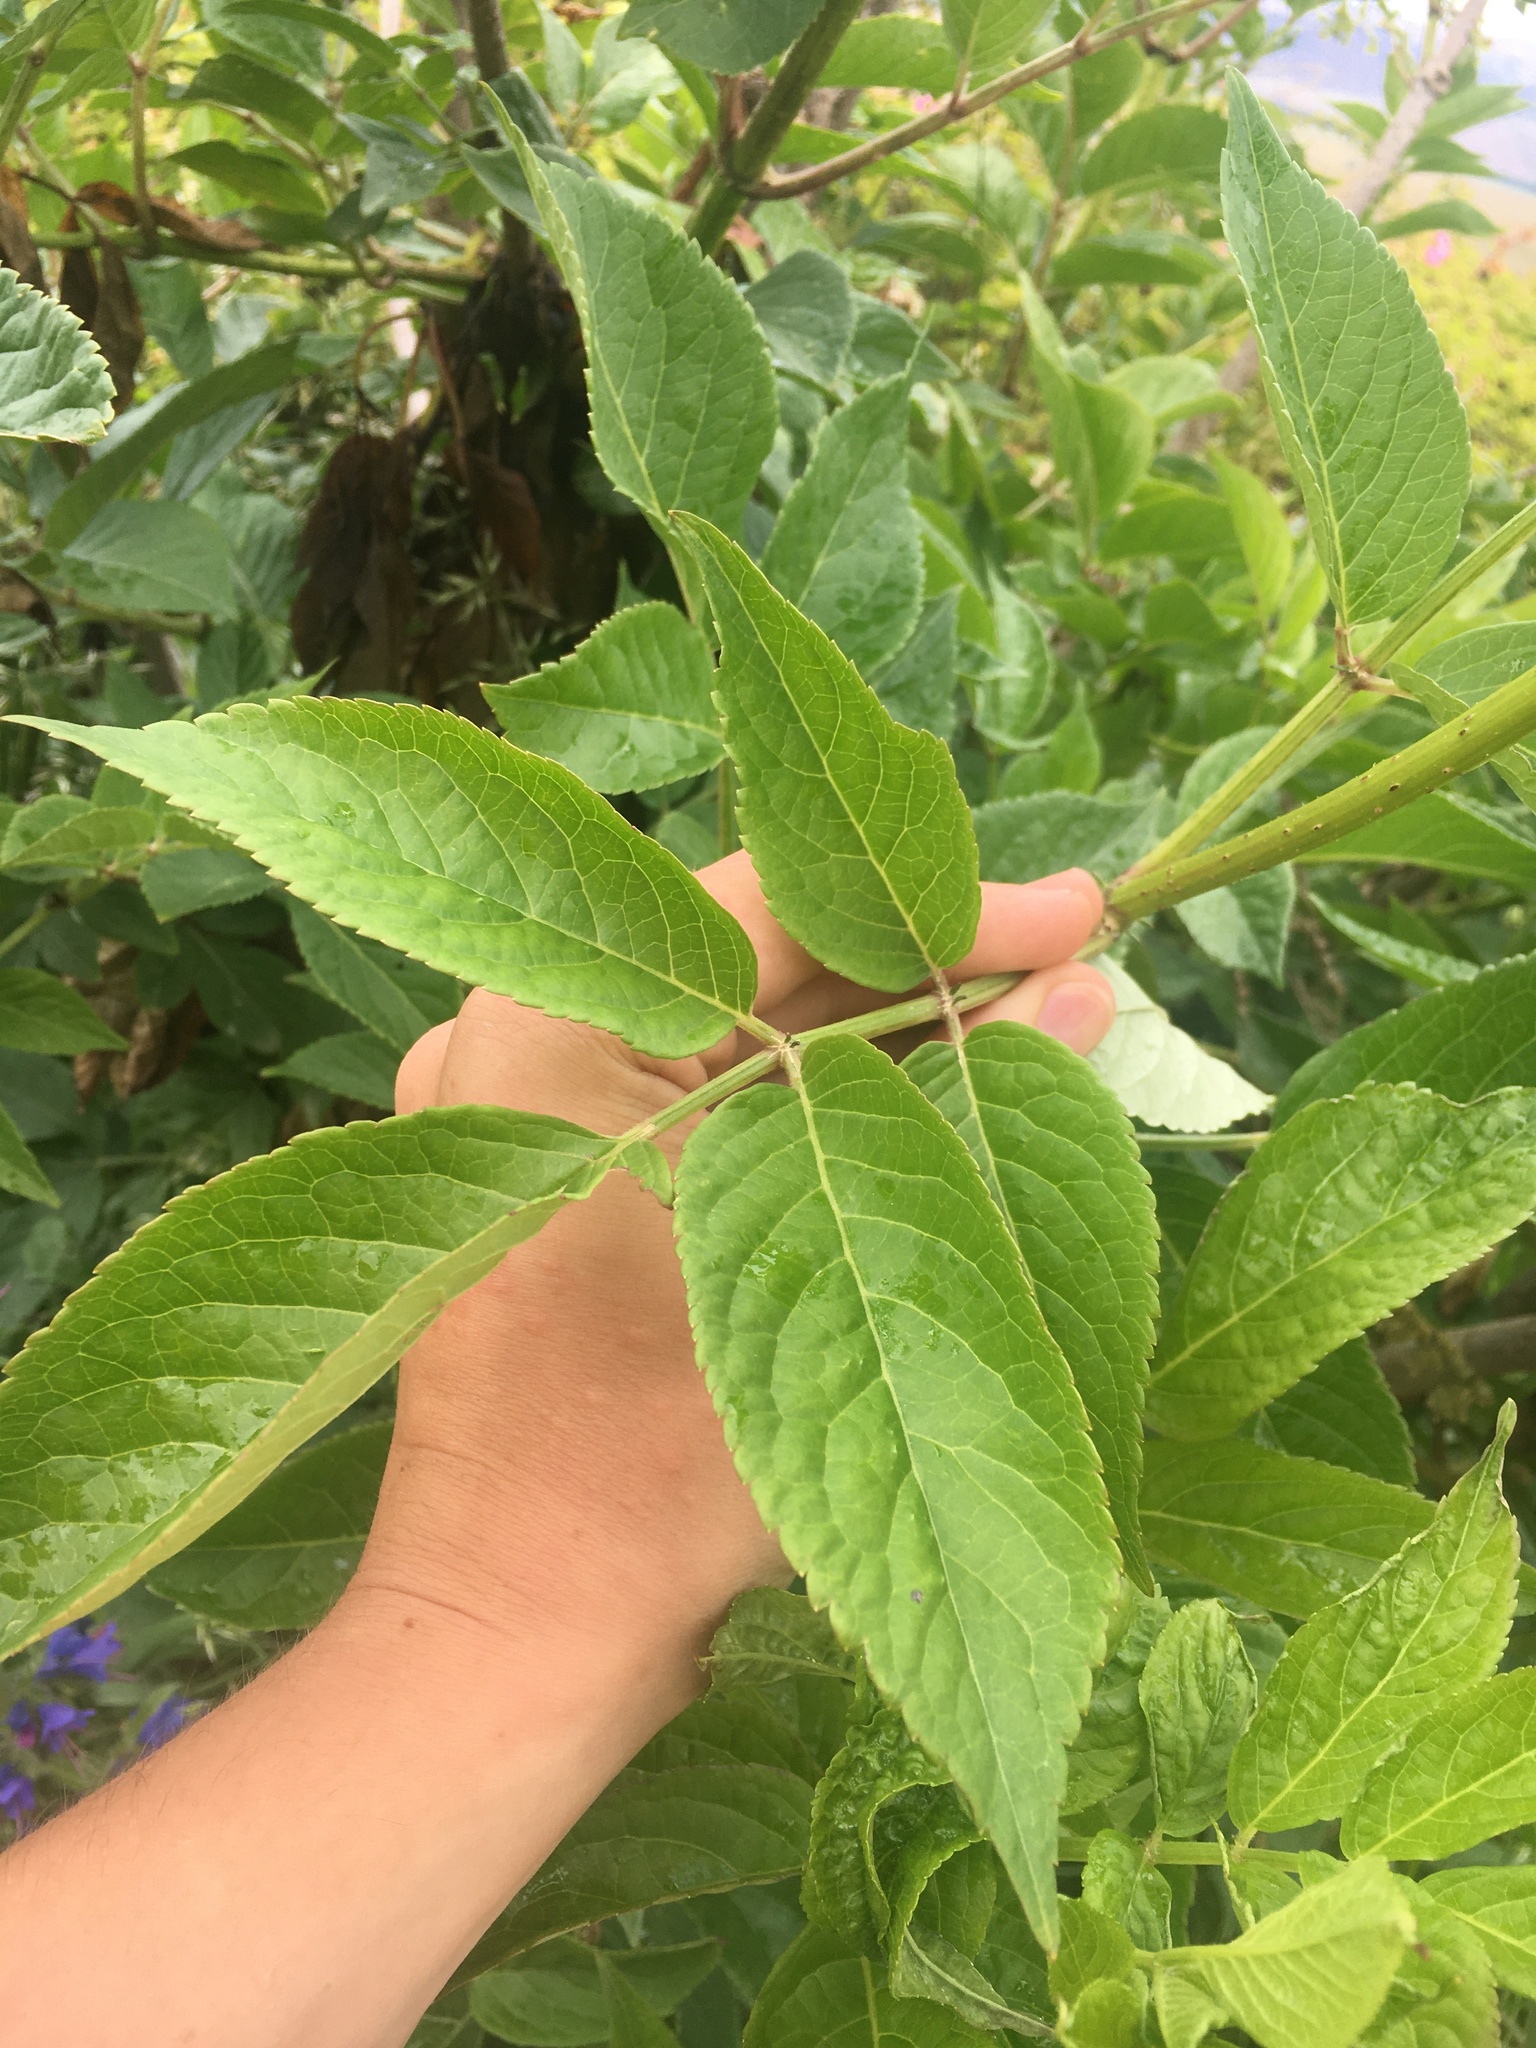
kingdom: Plantae
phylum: Tracheophyta
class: Magnoliopsida
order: Dipsacales
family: Viburnaceae
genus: Sambucus
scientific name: Sambucus nigra
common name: Elder
